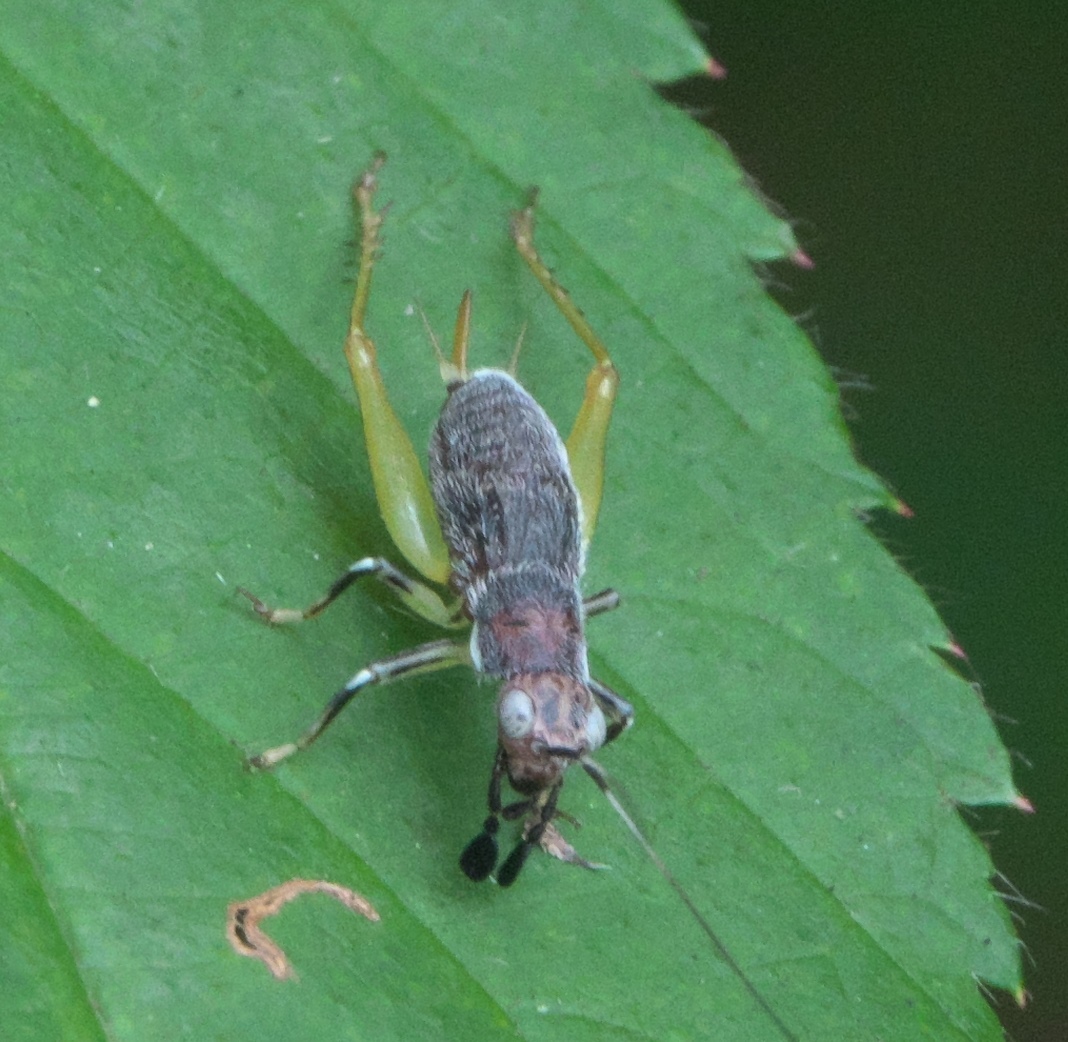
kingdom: Animalia
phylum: Arthropoda
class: Insecta
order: Orthoptera
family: Trigonidiidae
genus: Phyllopalpus
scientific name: Phyllopalpus pulchellus
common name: Handsome trig
